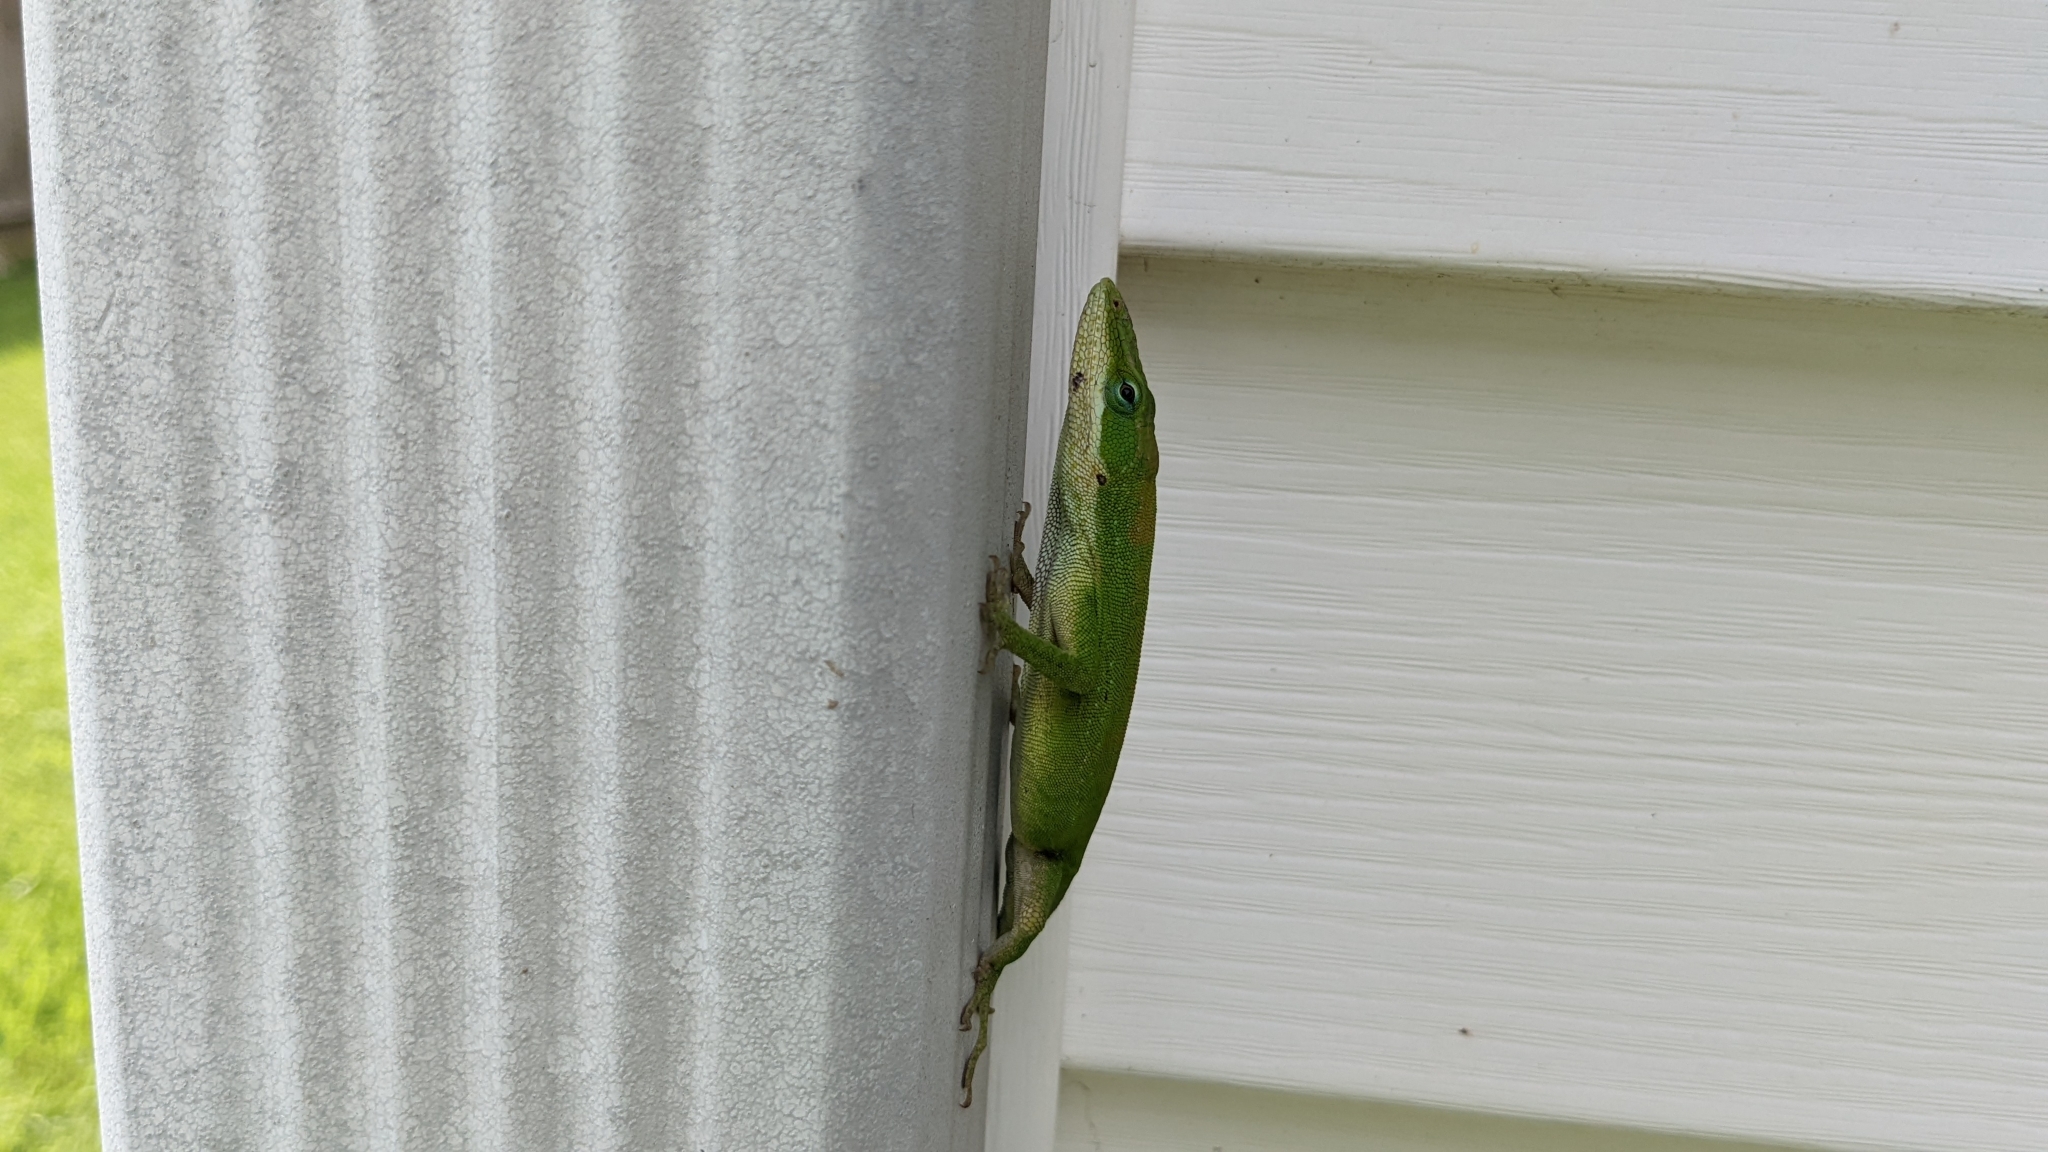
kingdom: Animalia
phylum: Chordata
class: Squamata
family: Dactyloidae
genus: Anolis
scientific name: Anolis carolinensis
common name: Green anole
